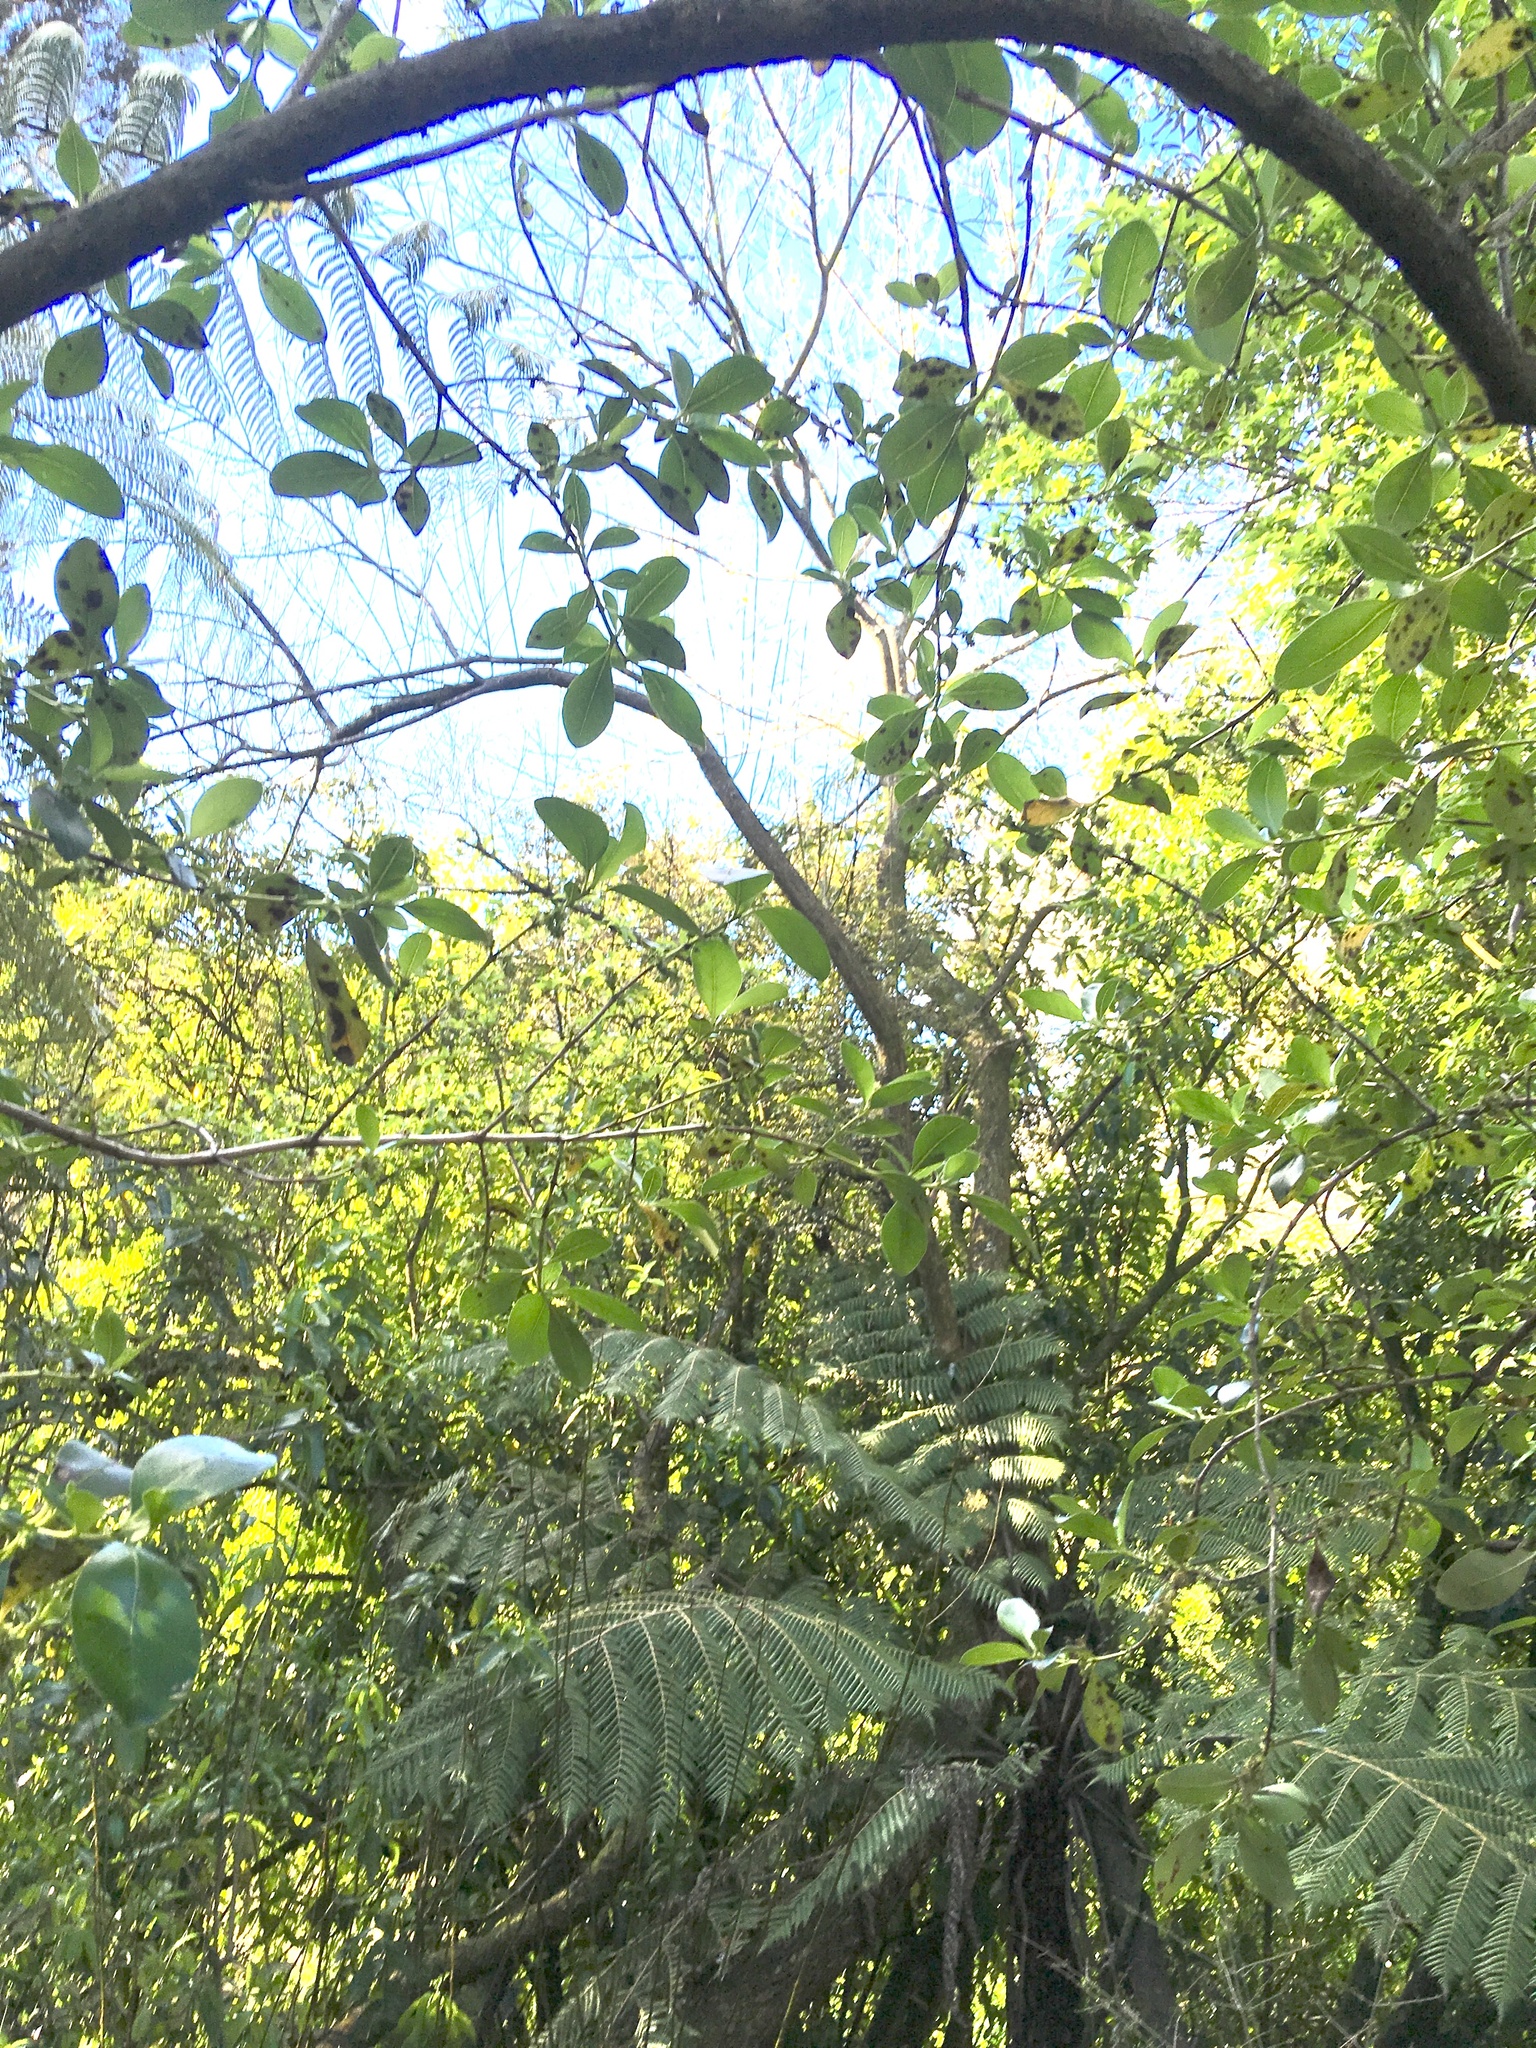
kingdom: Plantae
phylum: Tracheophyta
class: Polypodiopsida
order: Cyatheales
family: Cyatheaceae
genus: Alsophila
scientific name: Alsophila dealbata
